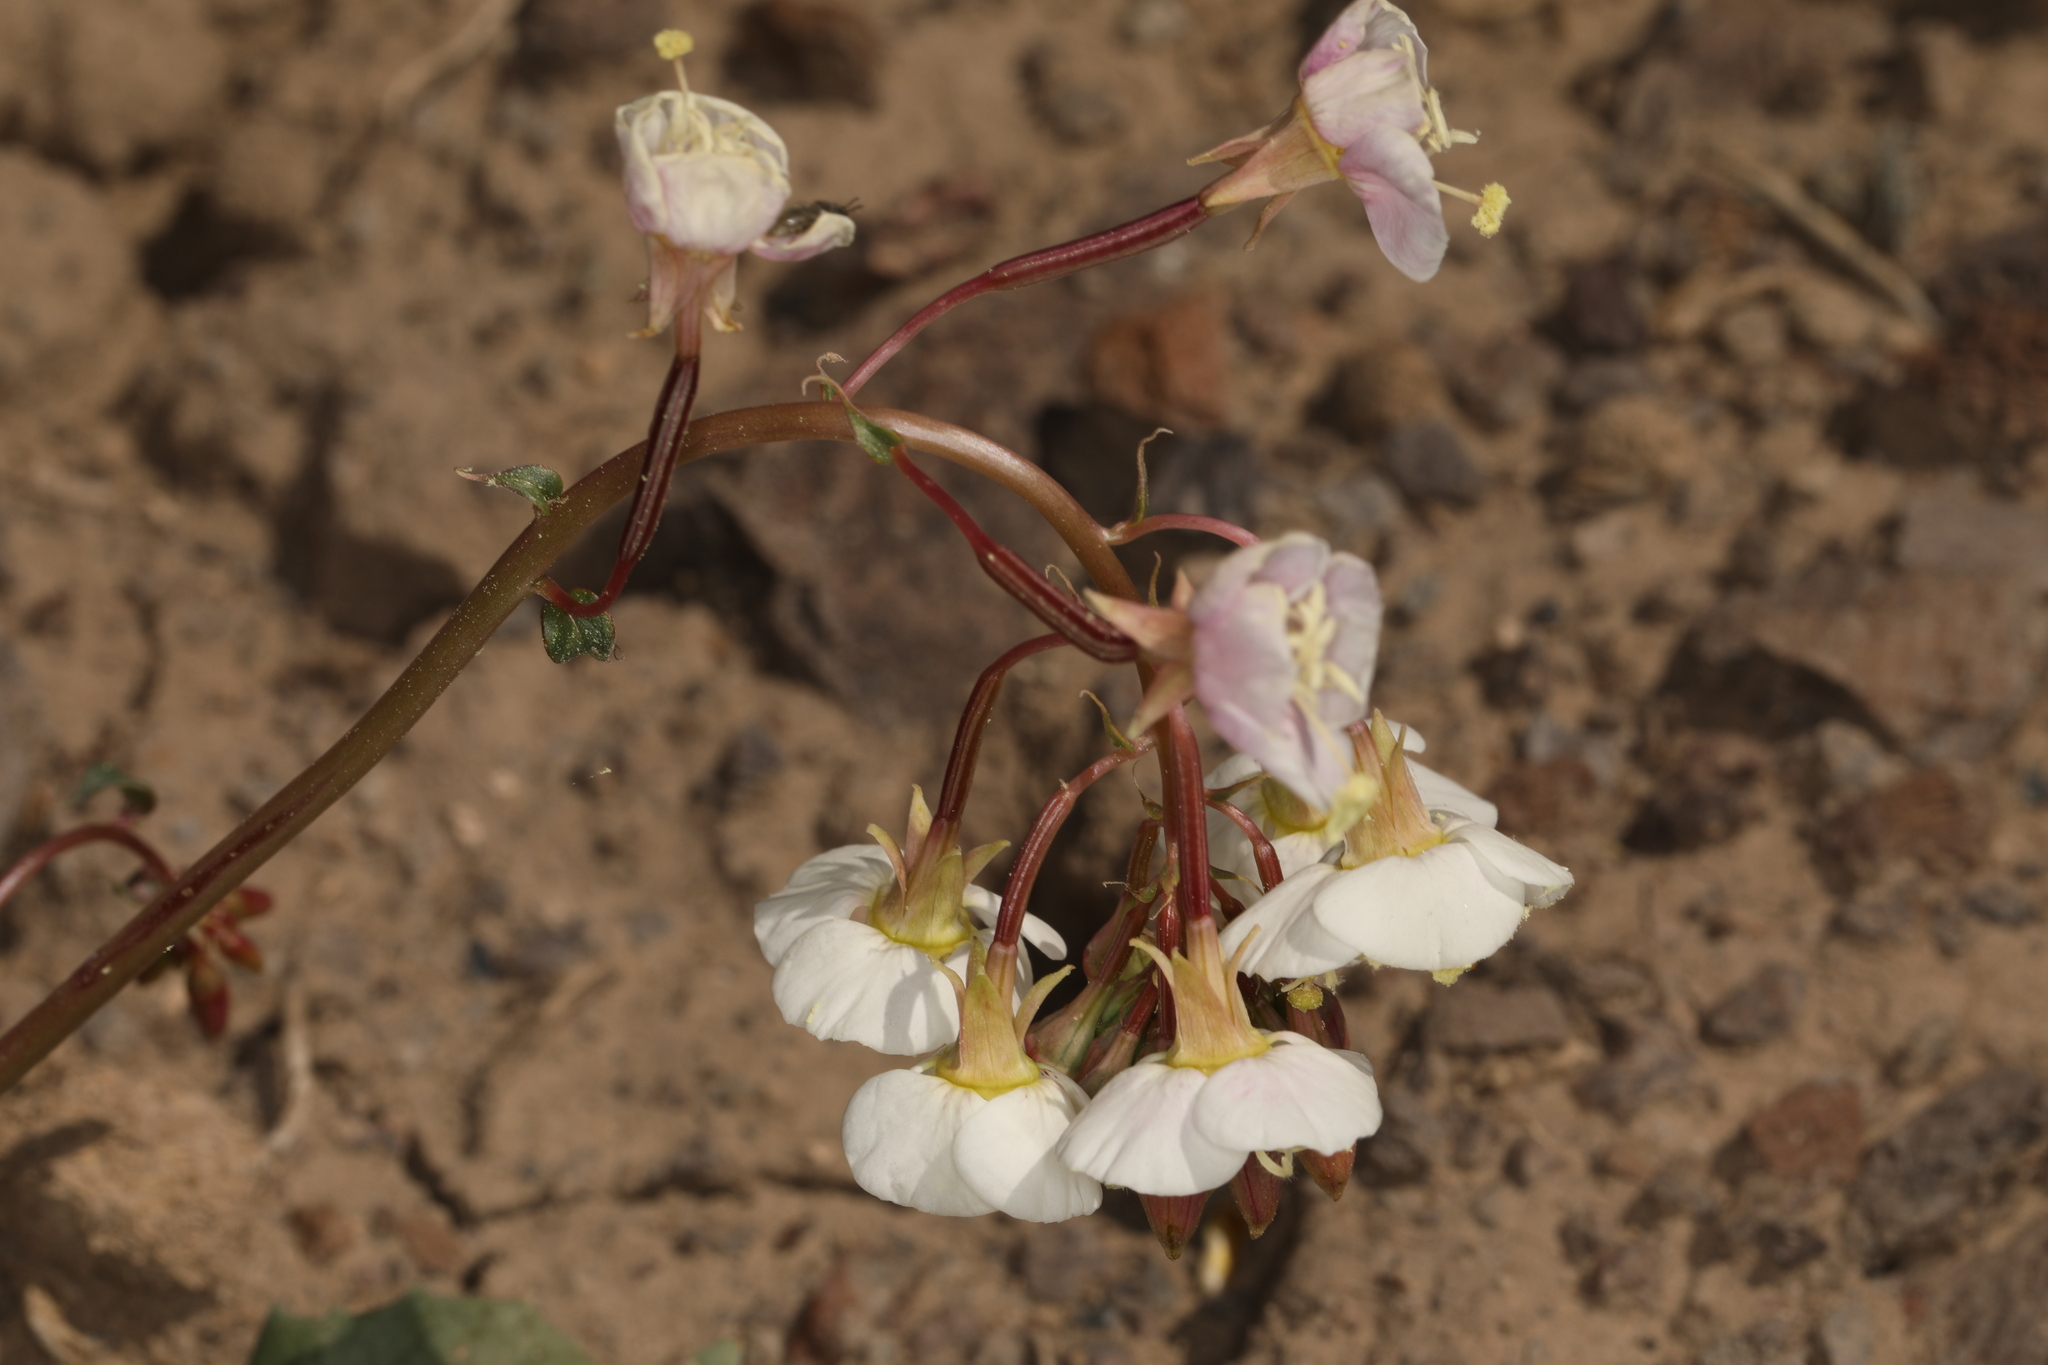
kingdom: Plantae
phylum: Tracheophyta
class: Magnoliopsida
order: Myrtales
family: Onagraceae
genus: Chylismia
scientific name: Chylismia claviformis
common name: Browneyes
